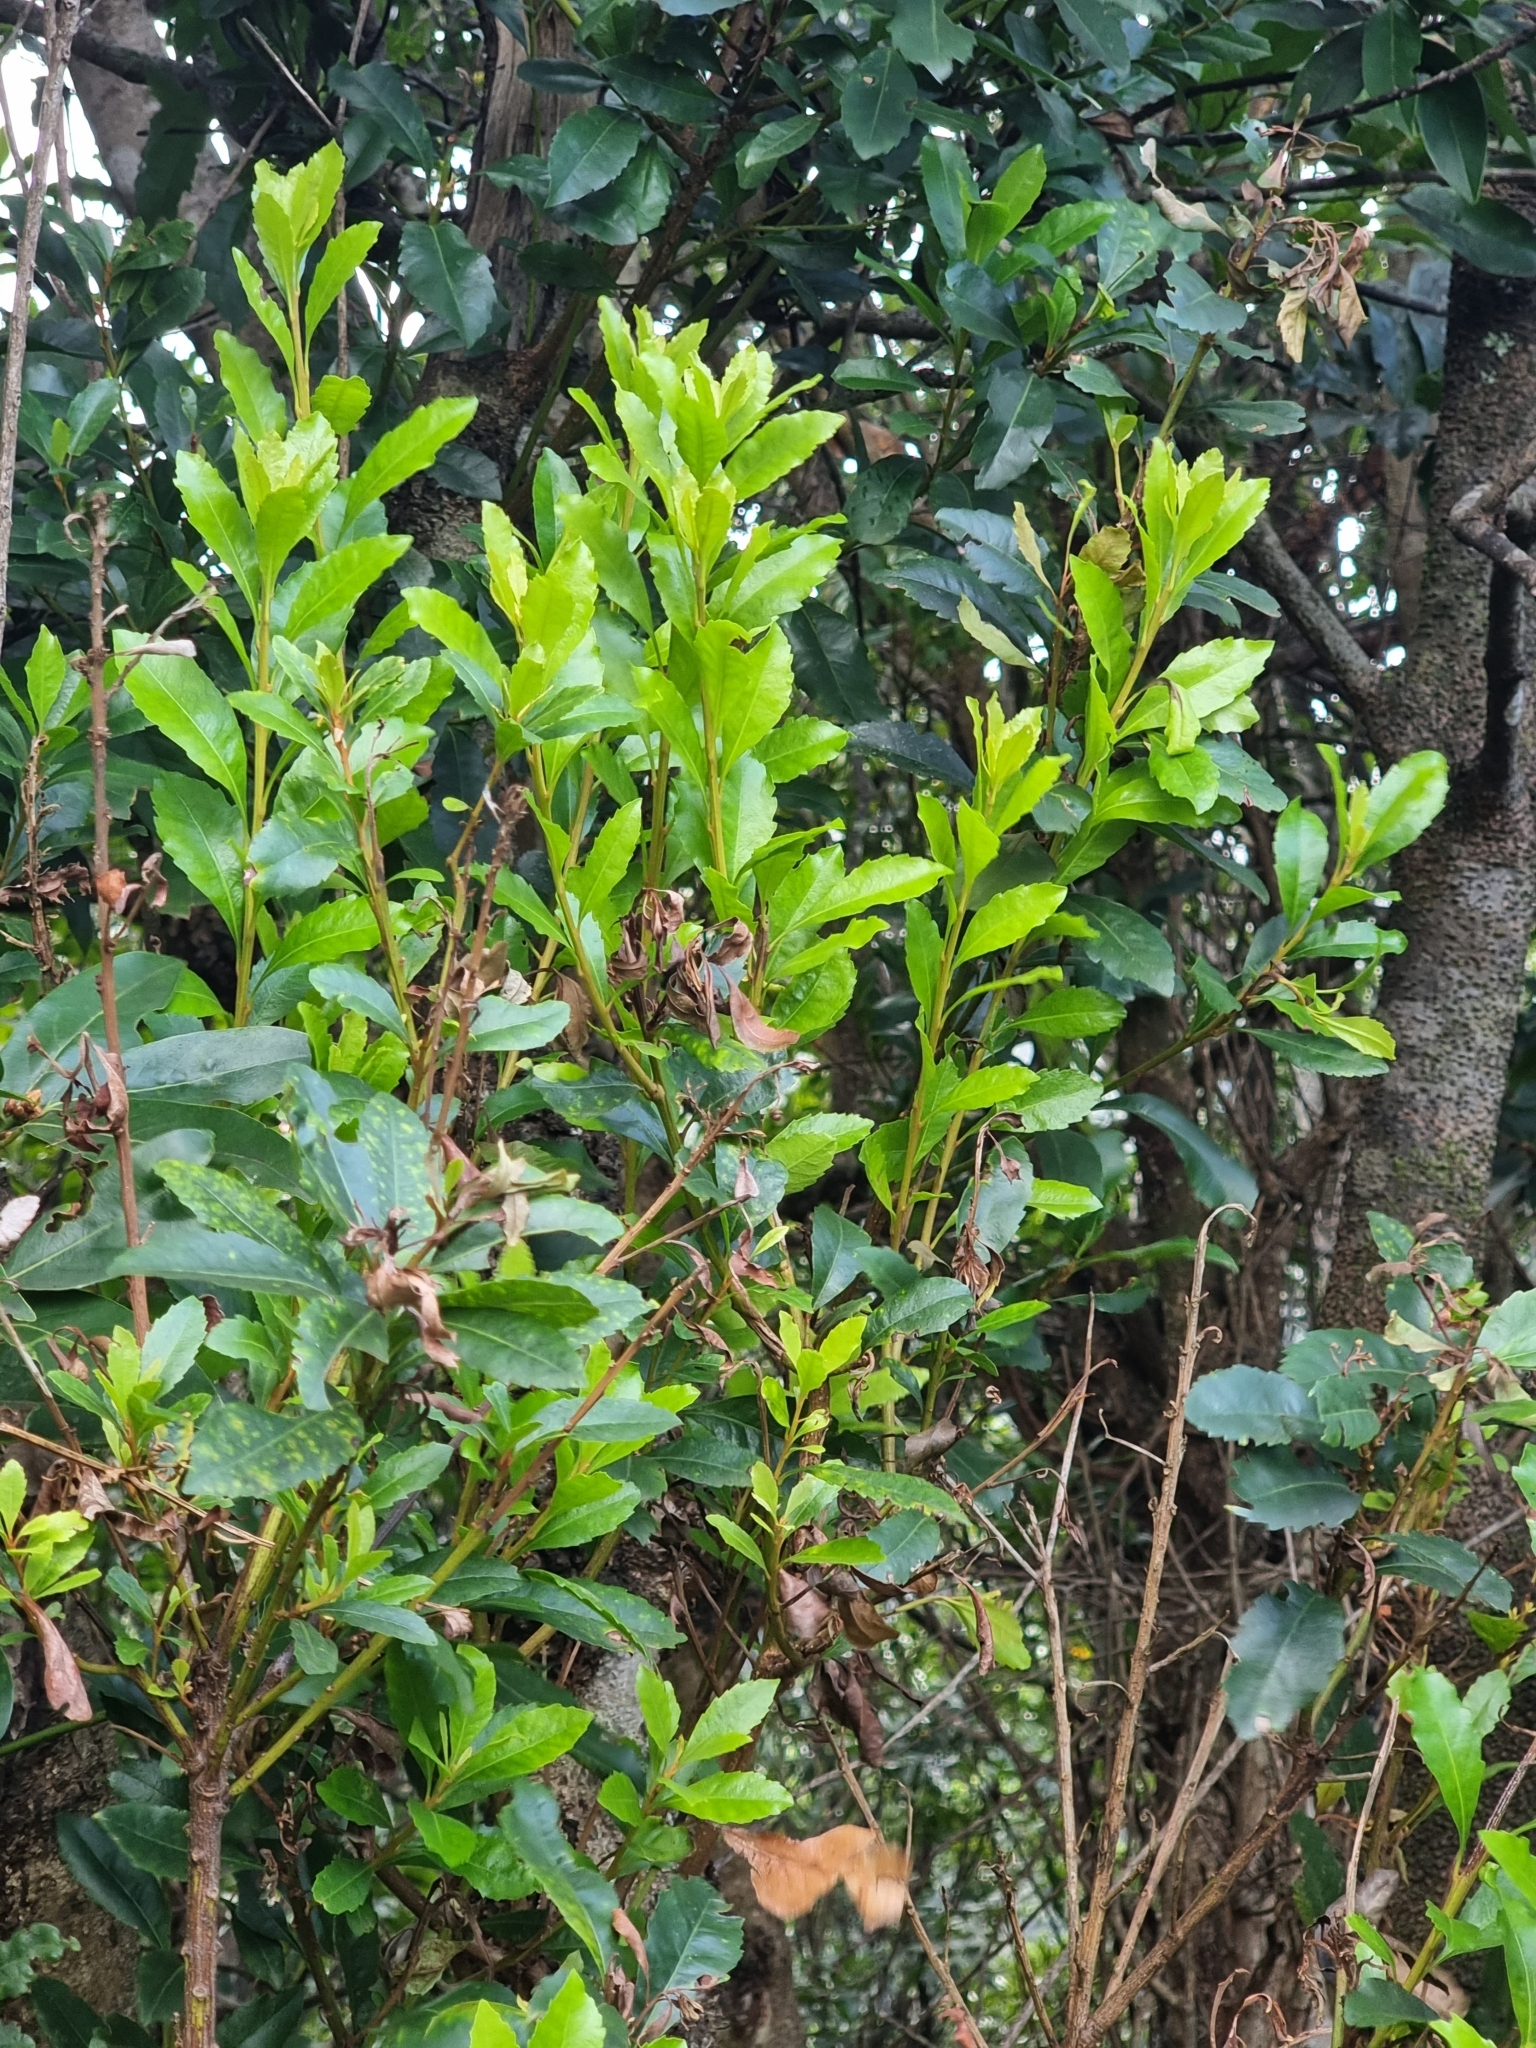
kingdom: Plantae
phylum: Tracheophyta
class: Magnoliopsida
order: Fagales
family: Myricaceae
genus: Morella
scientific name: Morella faya
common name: Firetree
